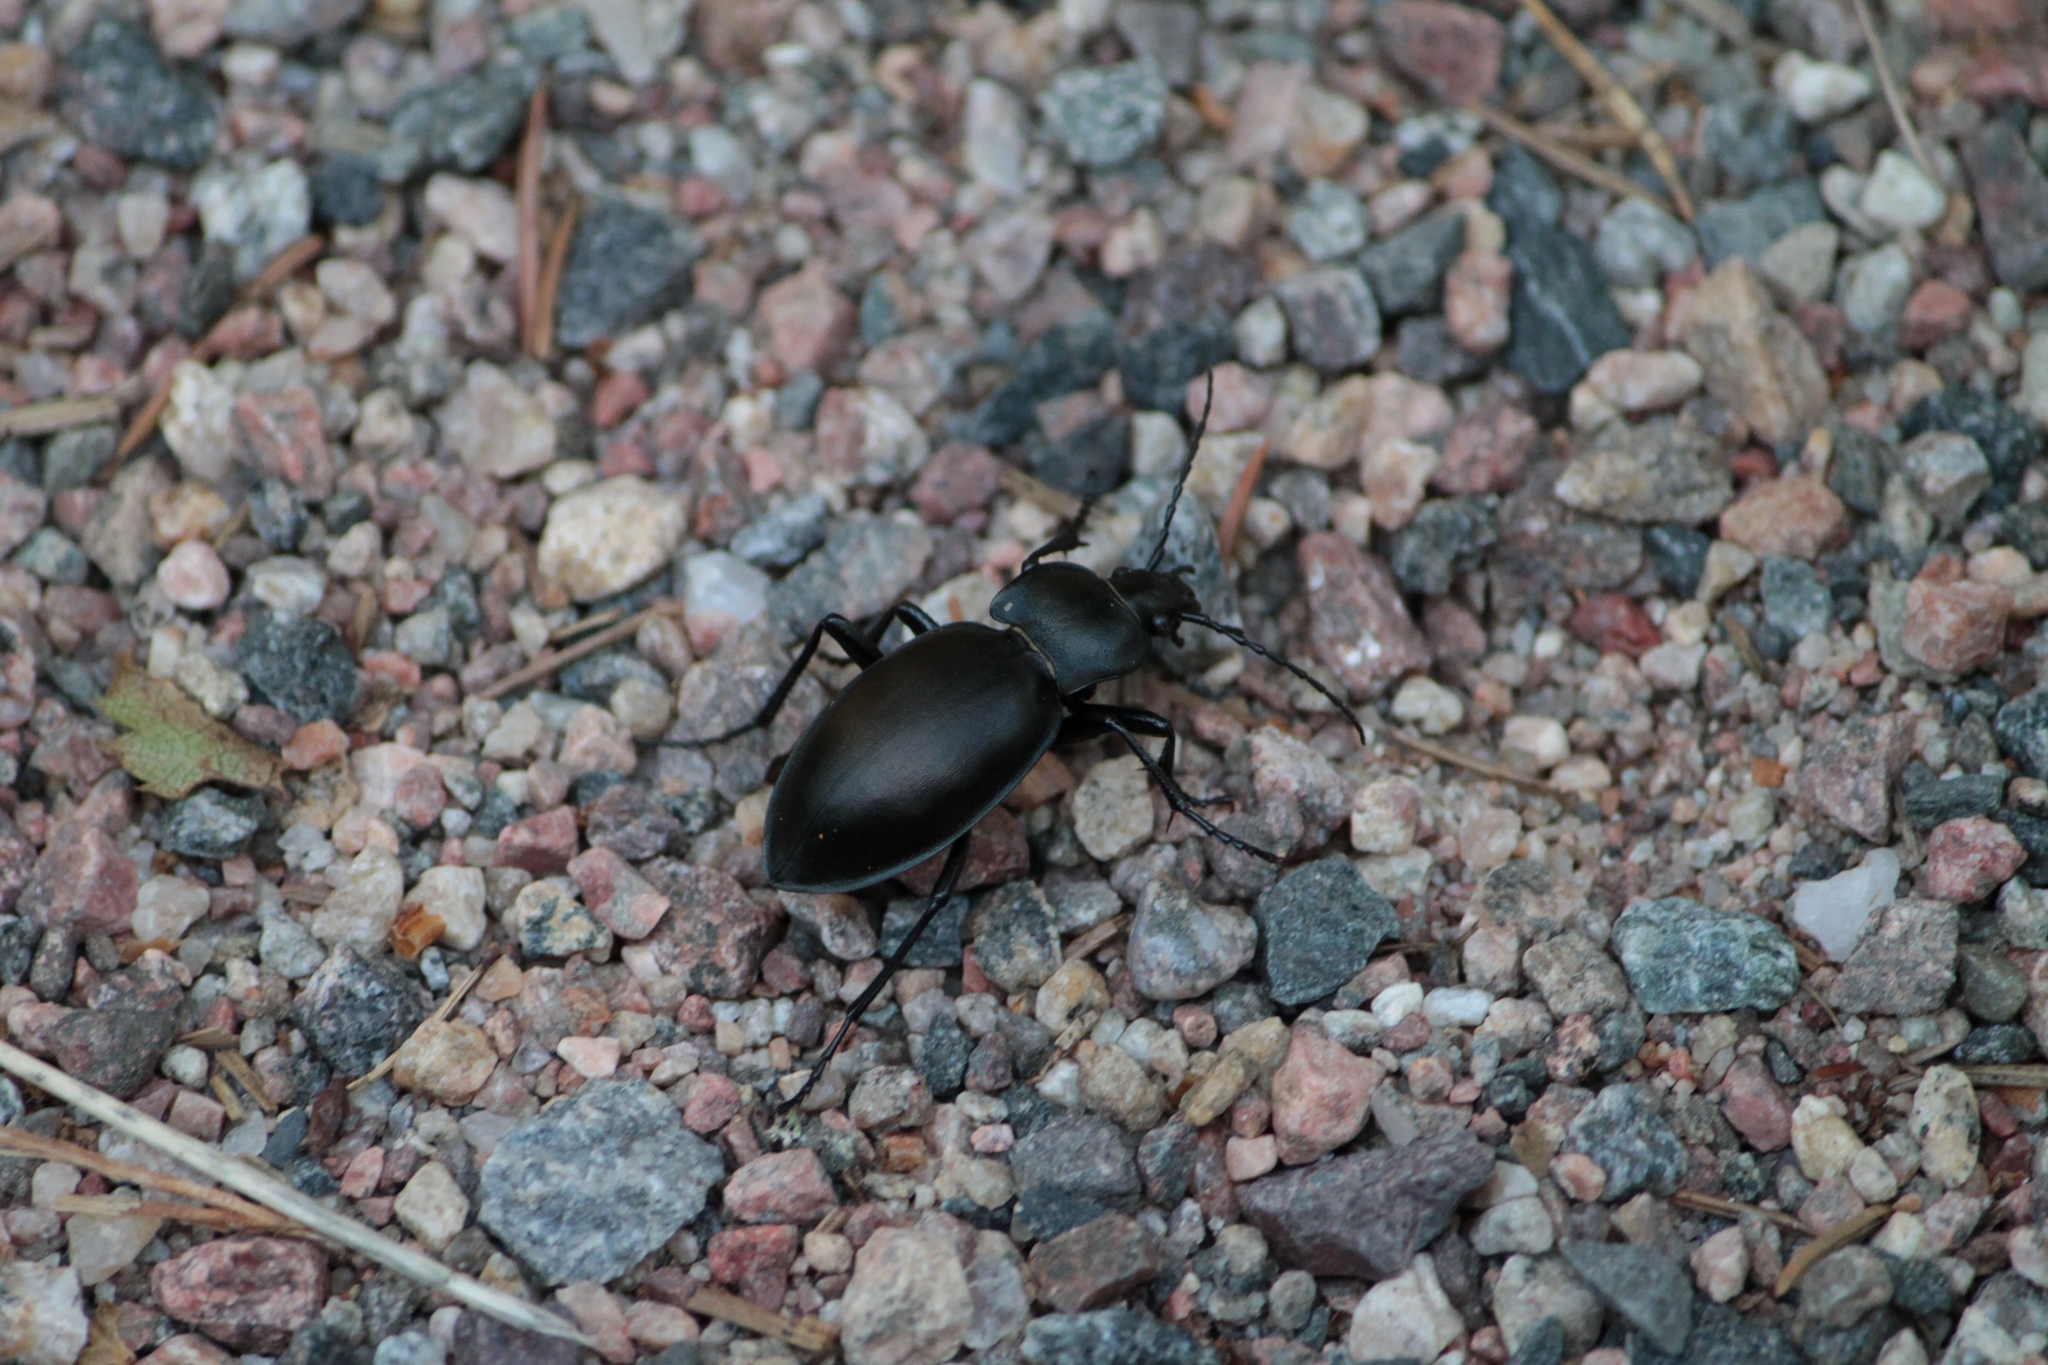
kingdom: Animalia
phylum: Arthropoda
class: Insecta
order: Coleoptera
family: Carabidae
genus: Carabus
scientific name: Carabus glabratus
